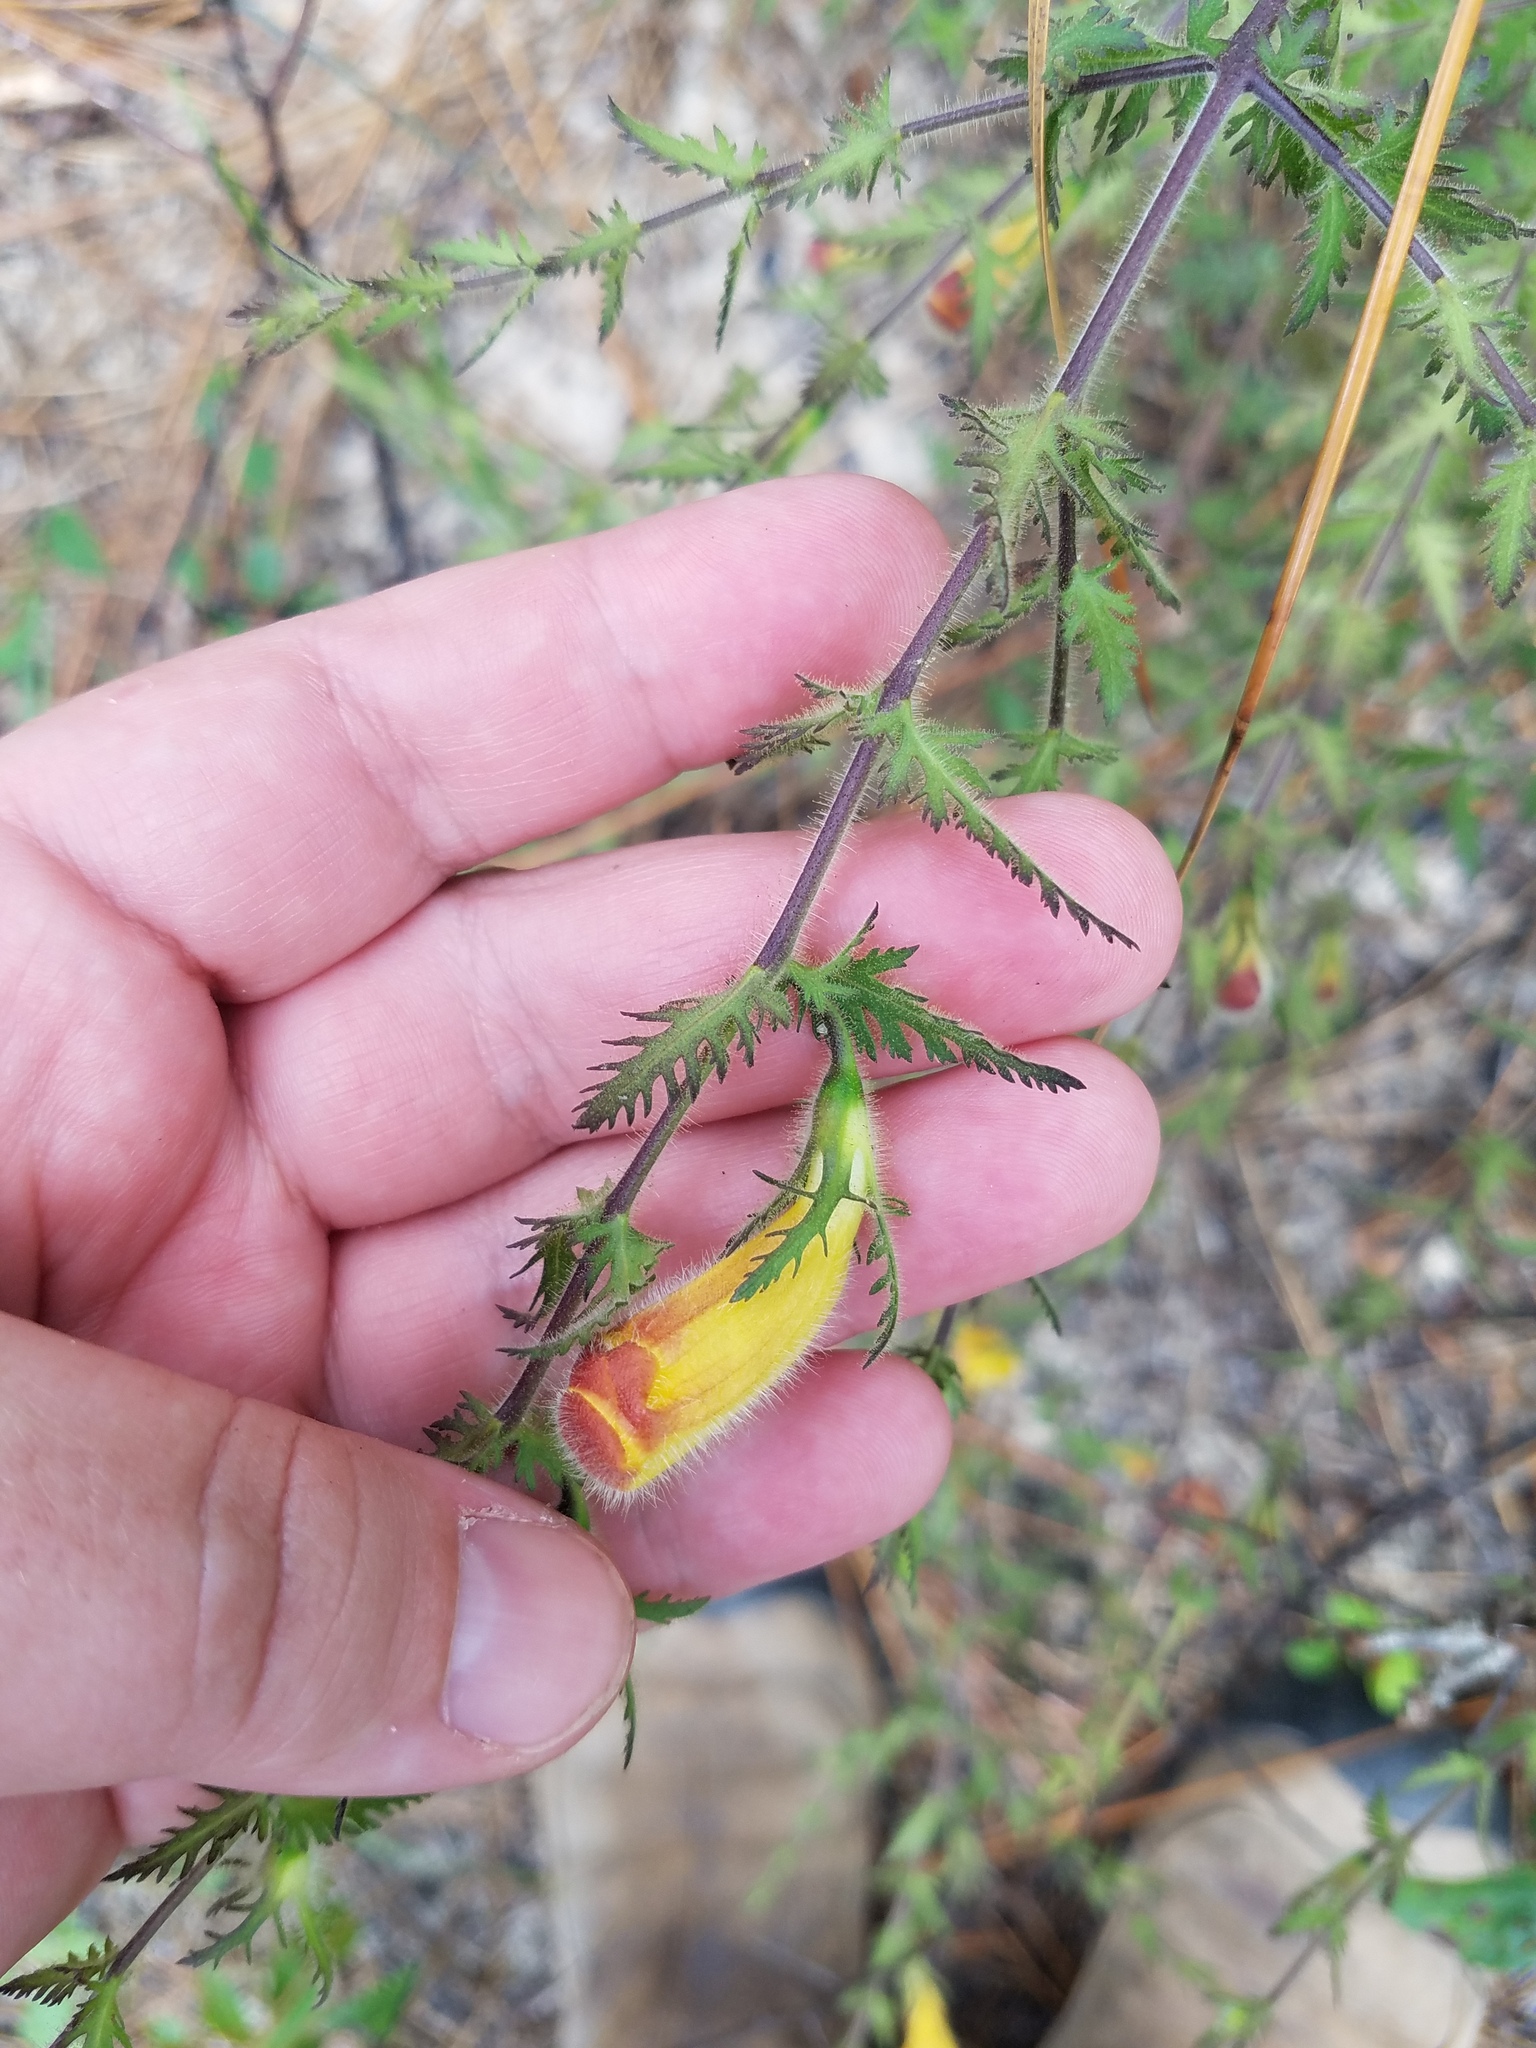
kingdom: Plantae
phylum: Tracheophyta
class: Magnoliopsida
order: Lamiales
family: Orobanchaceae
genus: Aureolaria
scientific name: Aureolaria pectinata
